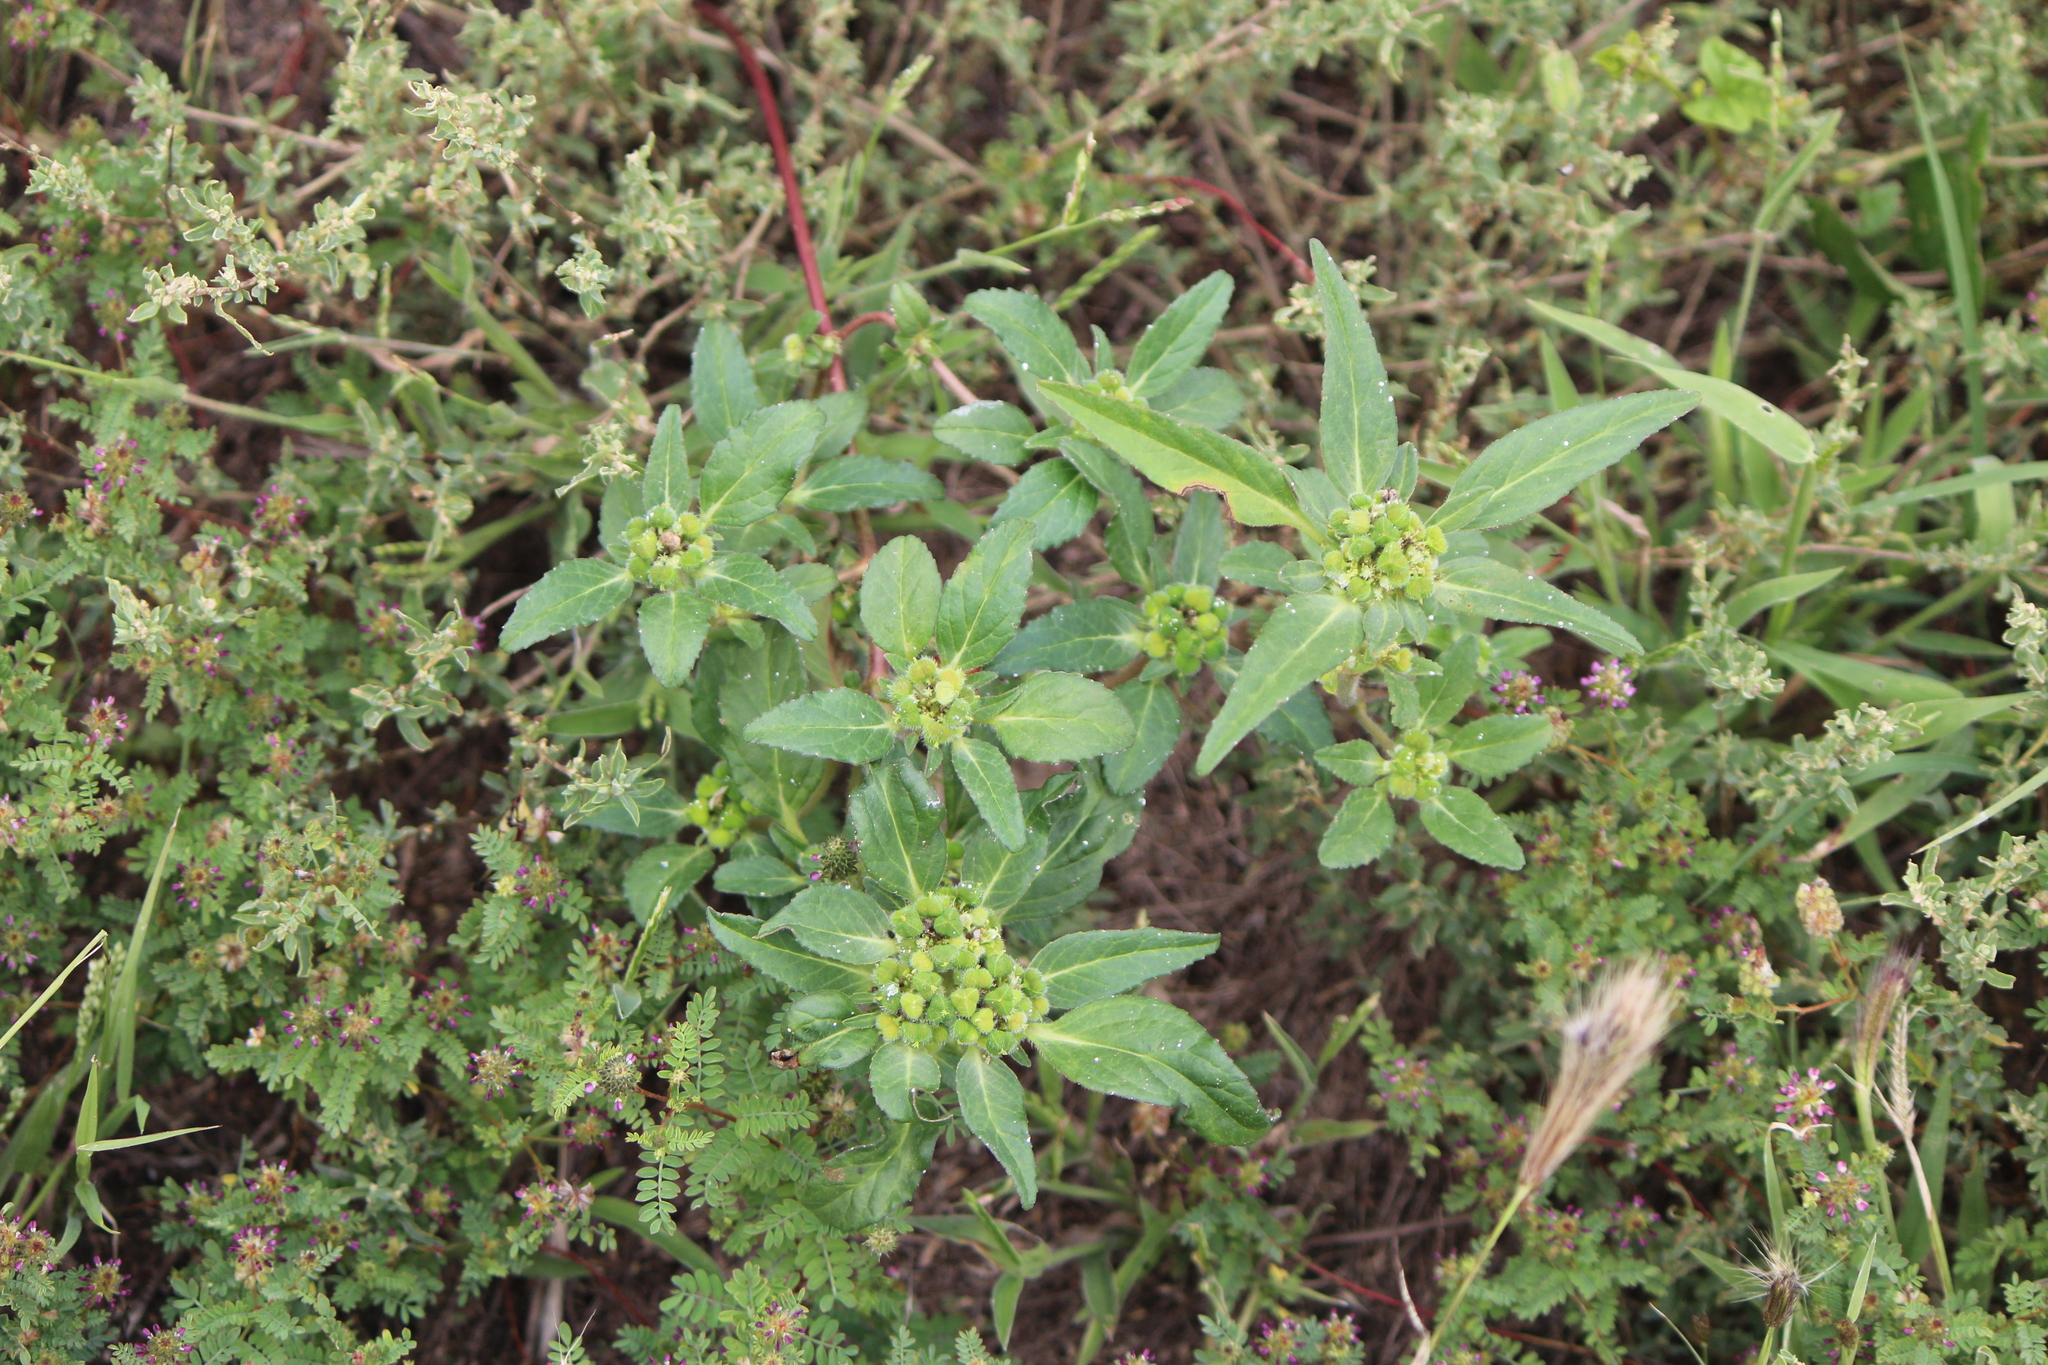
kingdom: Plantae
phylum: Tracheophyta
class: Magnoliopsida
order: Malpighiales
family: Euphorbiaceae
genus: Euphorbia
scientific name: Euphorbia cuphosperma
